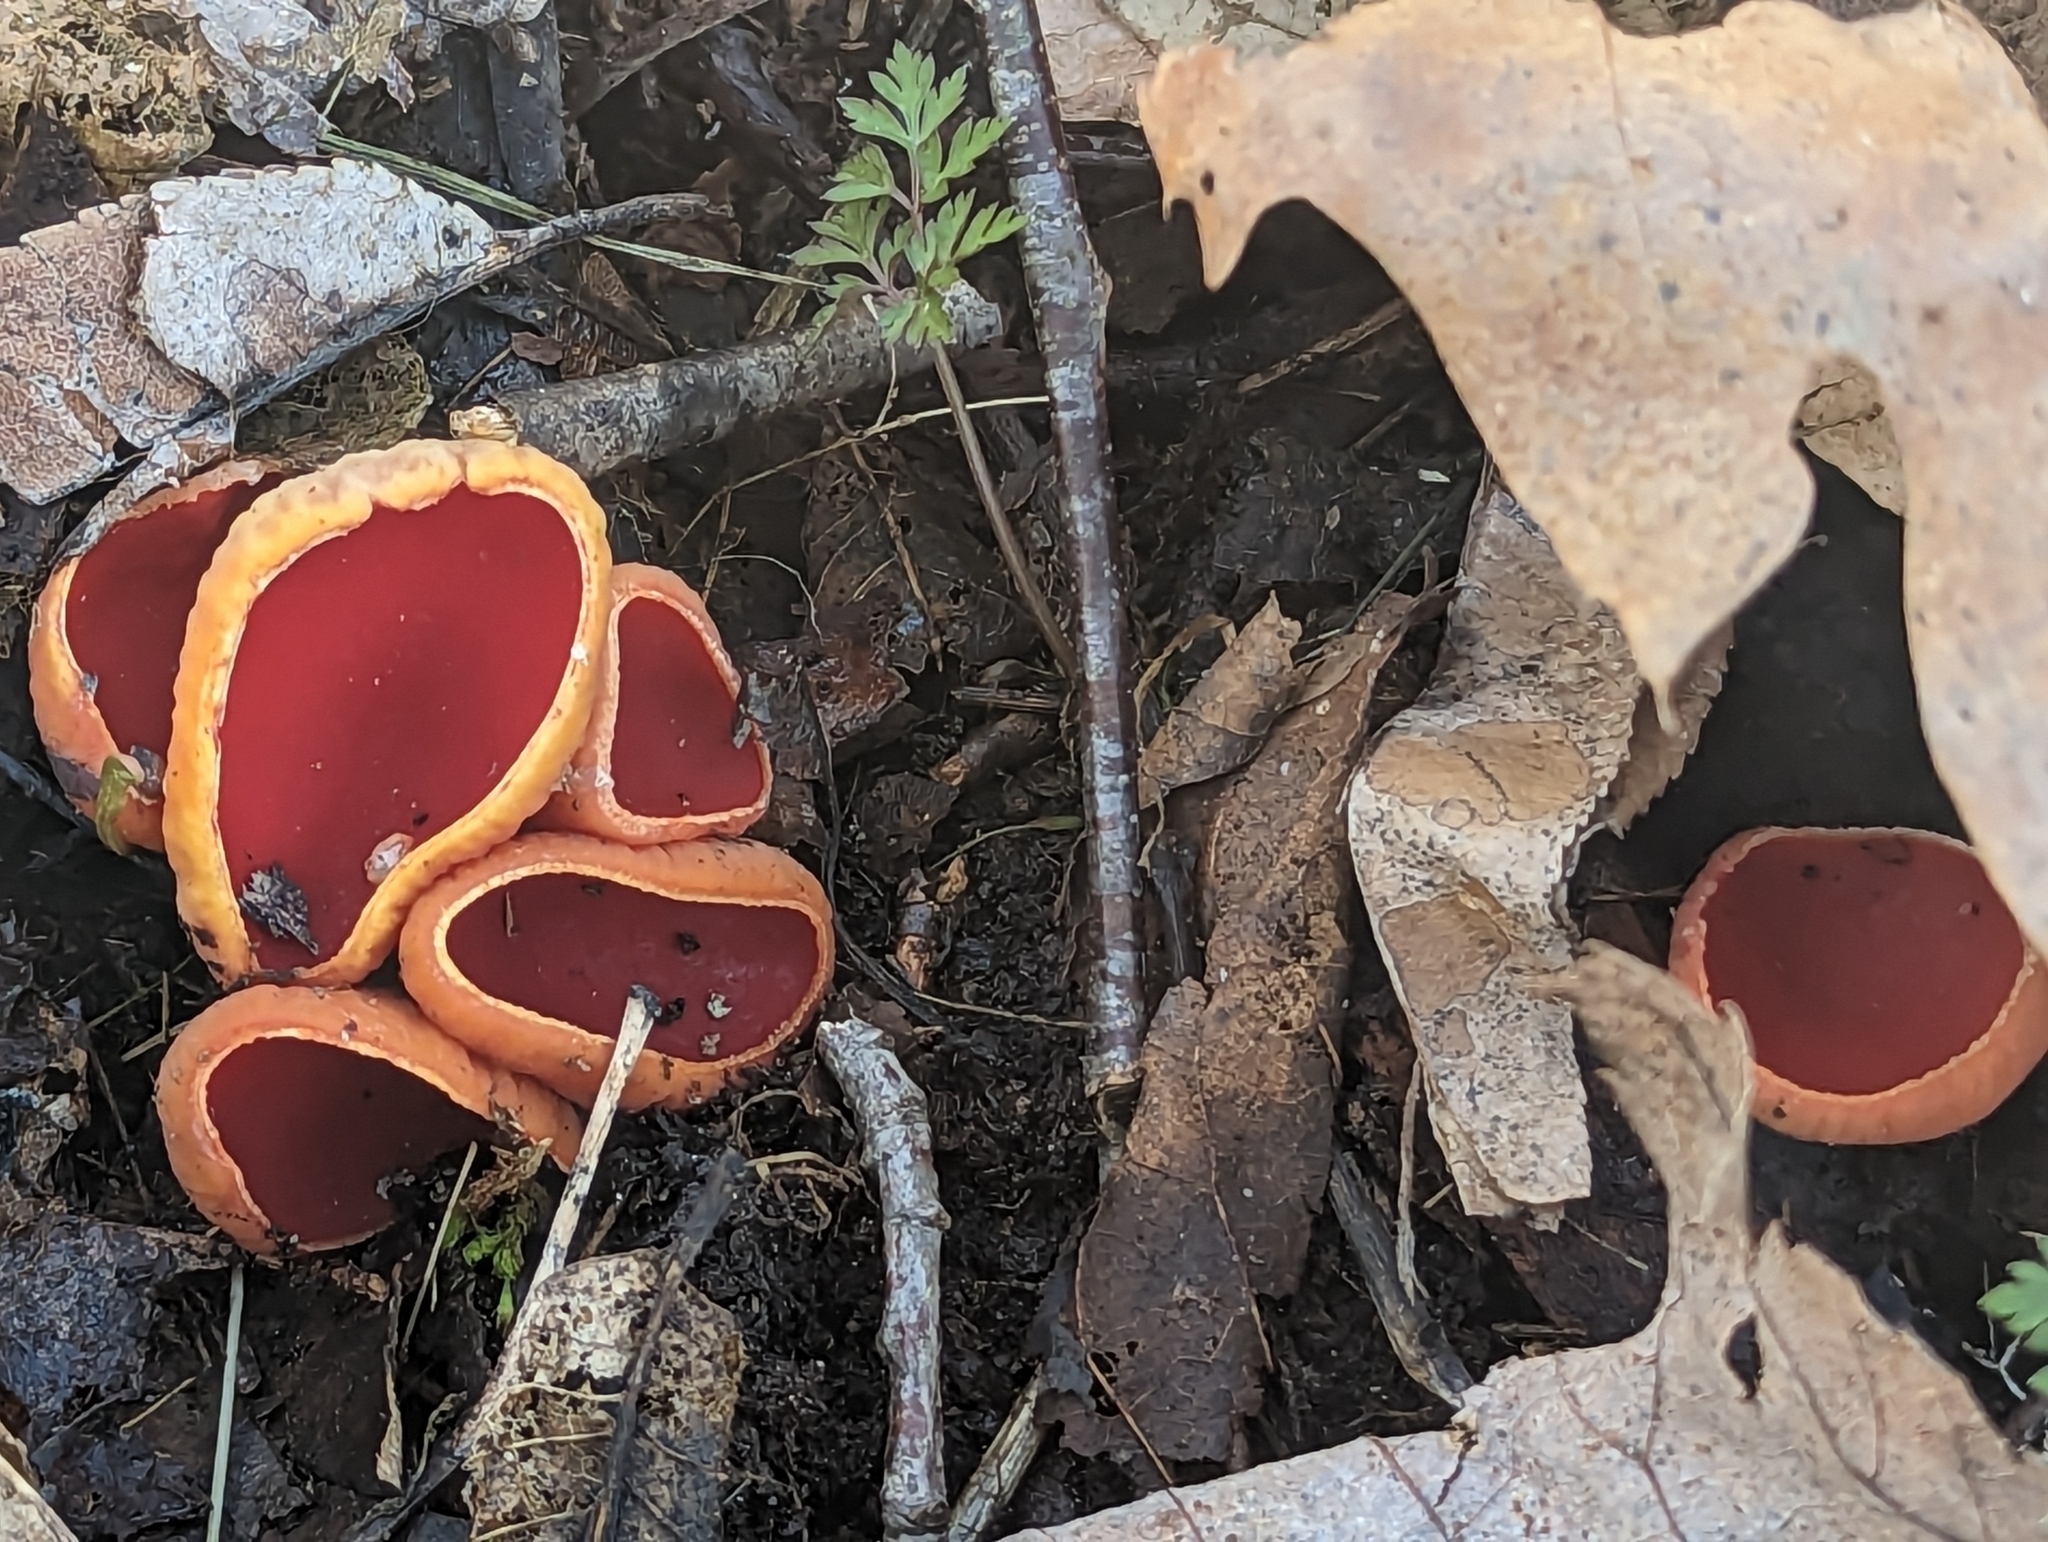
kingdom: Fungi
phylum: Ascomycota
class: Pezizomycetes
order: Pezizales
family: Sarcoscyphaceae
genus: Sarcoscypha
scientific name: Sarcoscypha austriaca
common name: Scarlet elfcup
